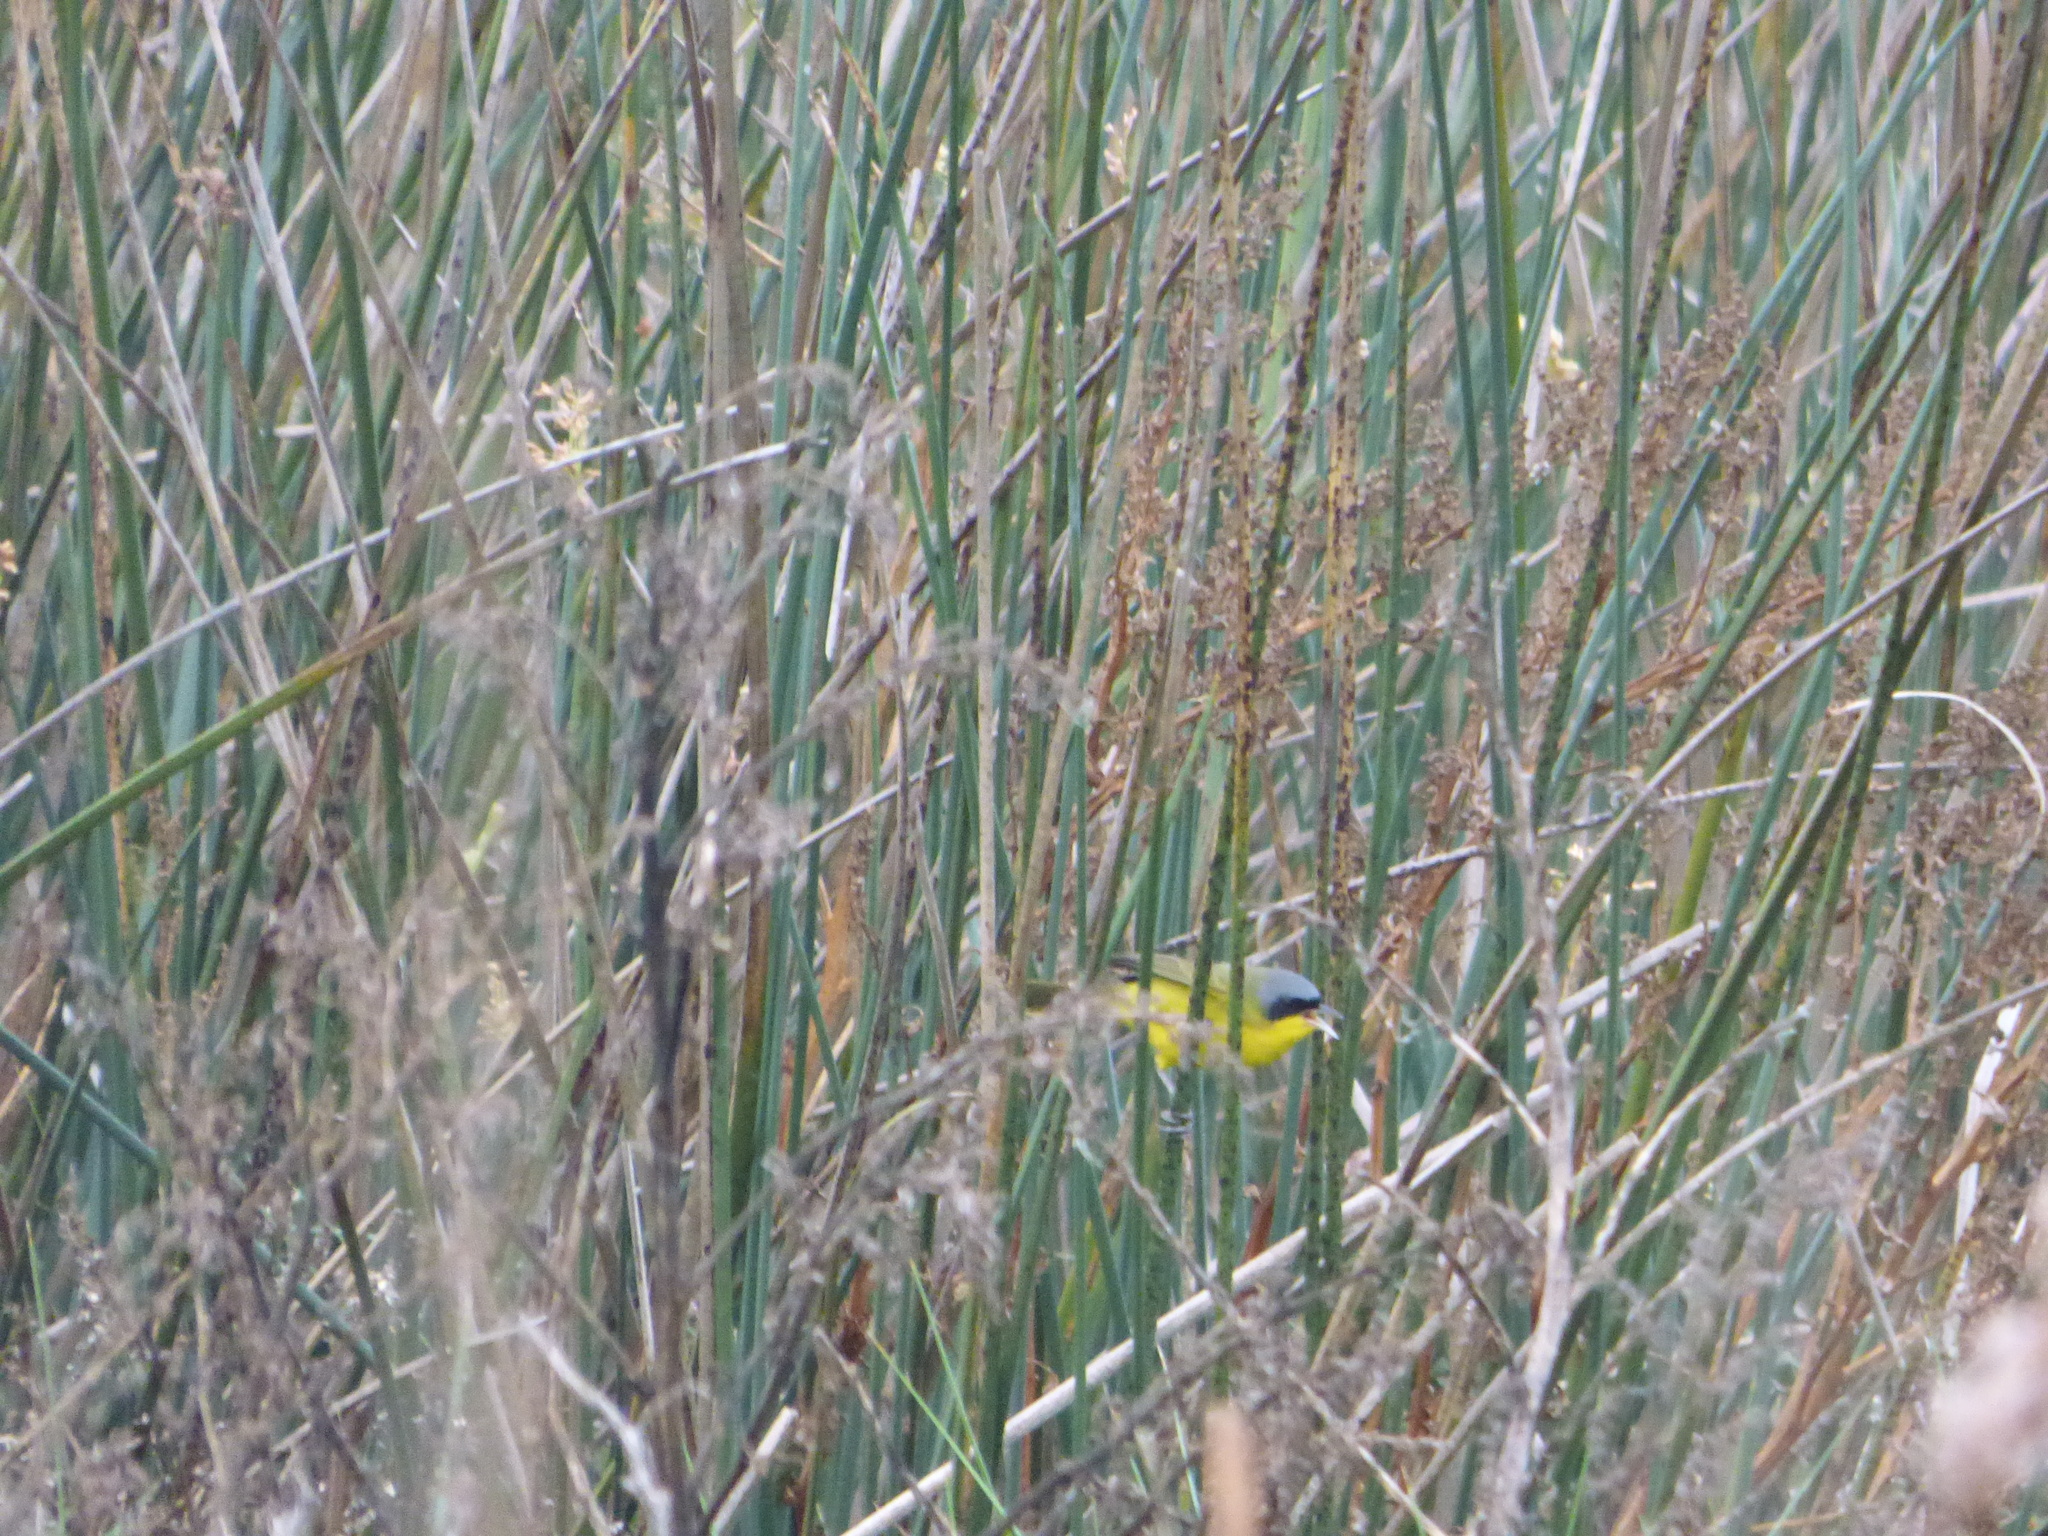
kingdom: Animalia
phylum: Chordata
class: Aves
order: Passeriformes
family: Parulidae
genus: Geothlypis
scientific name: Geothlypis velata
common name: Southern yellowthroat
